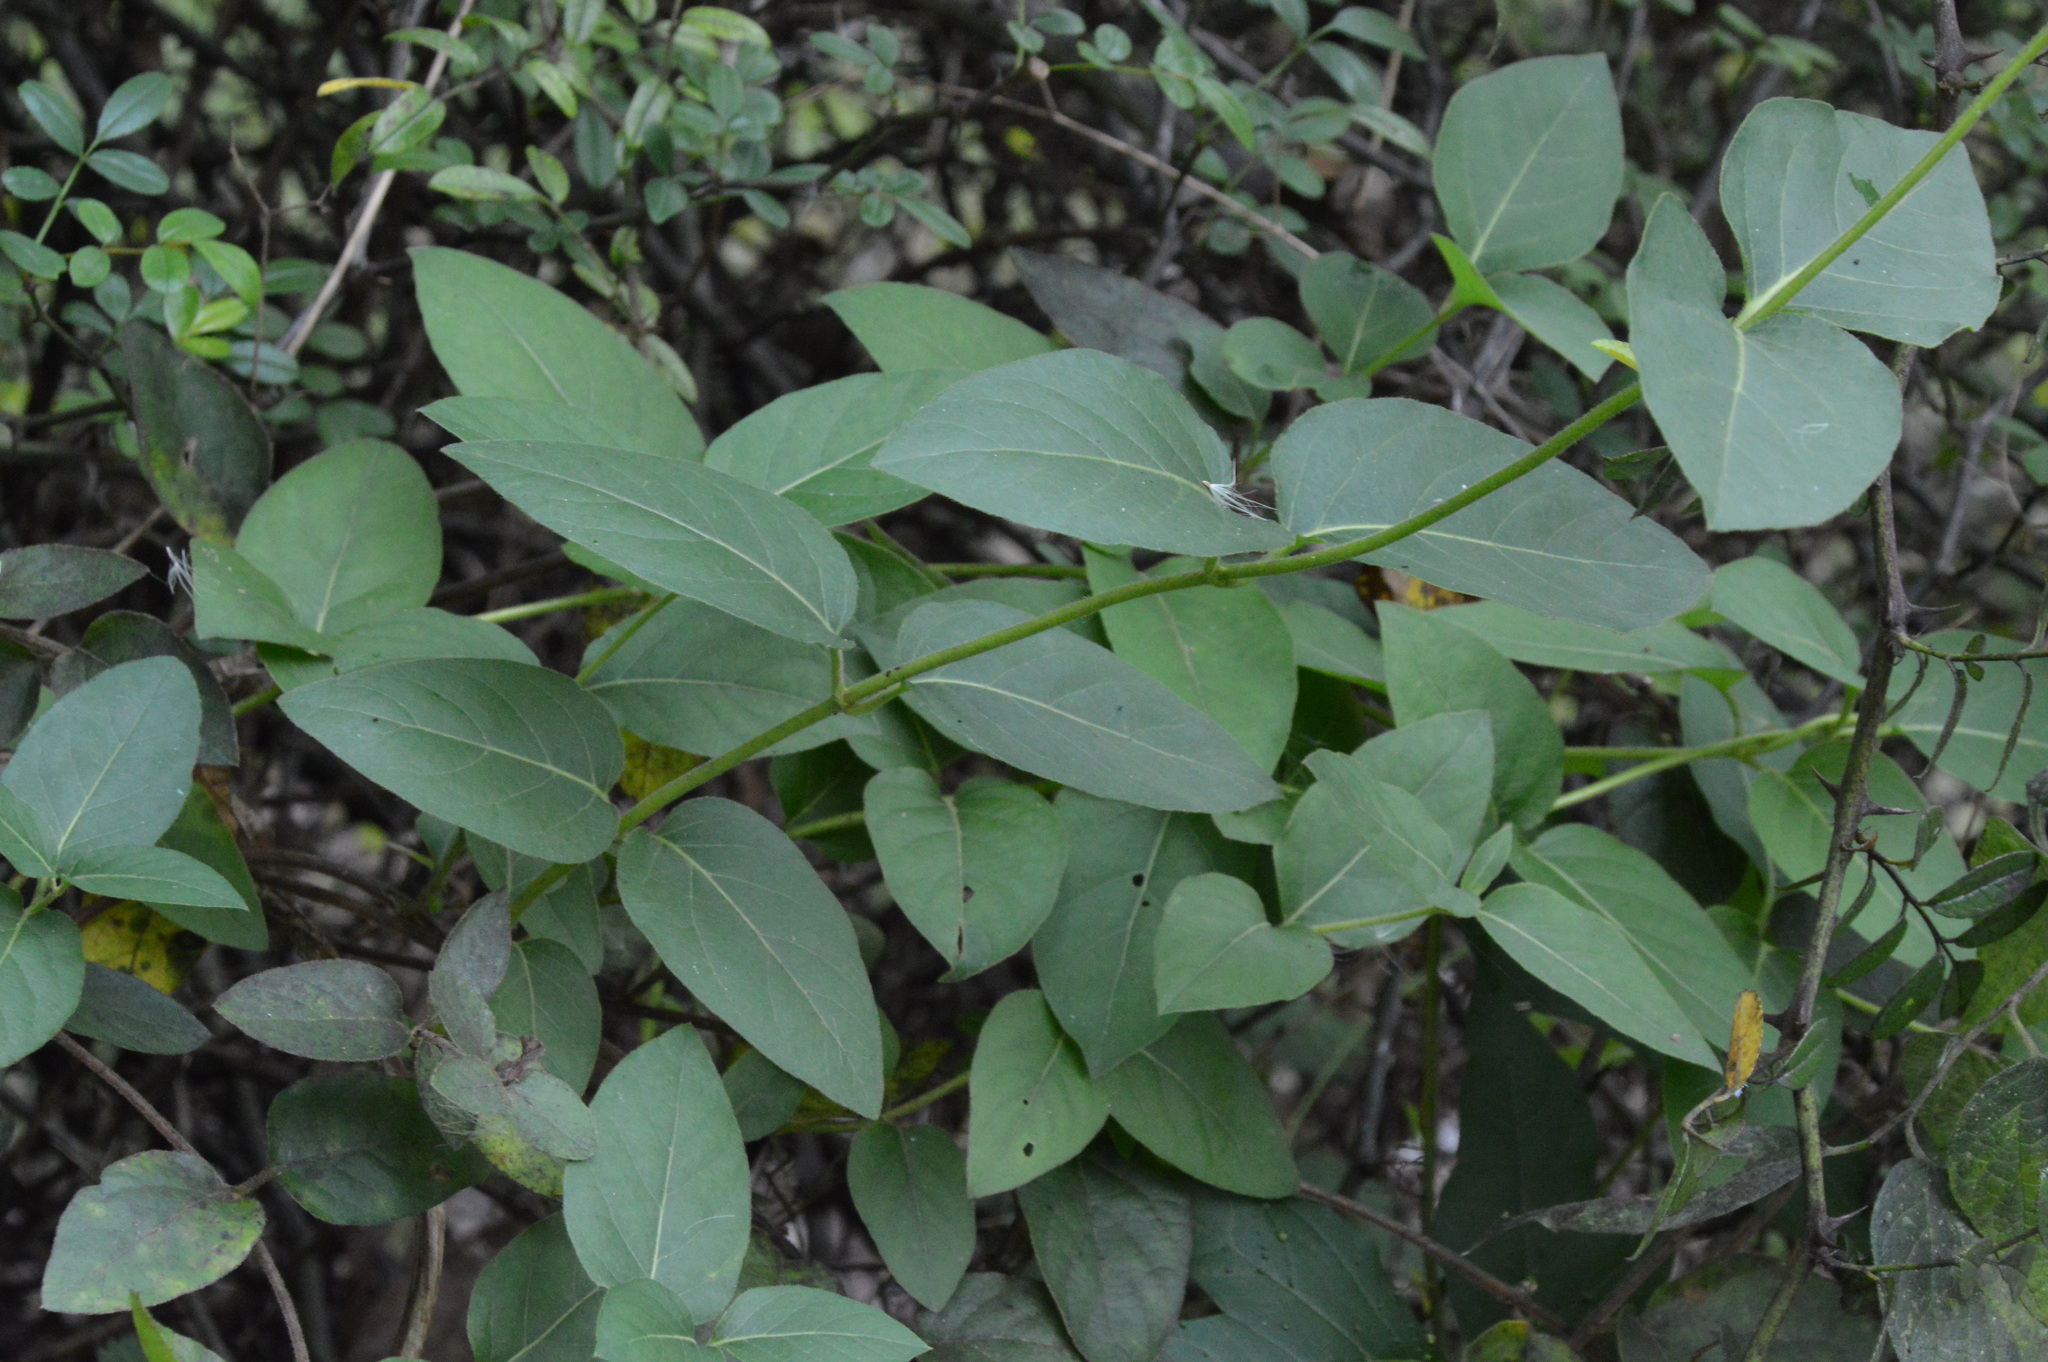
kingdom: Plantae
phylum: Tracheophyta
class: Magnoliopsida
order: Dipsacales
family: Caprifoliaceae
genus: Lonicera
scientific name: Lonicera japonica
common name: Japanese honeysuckle
